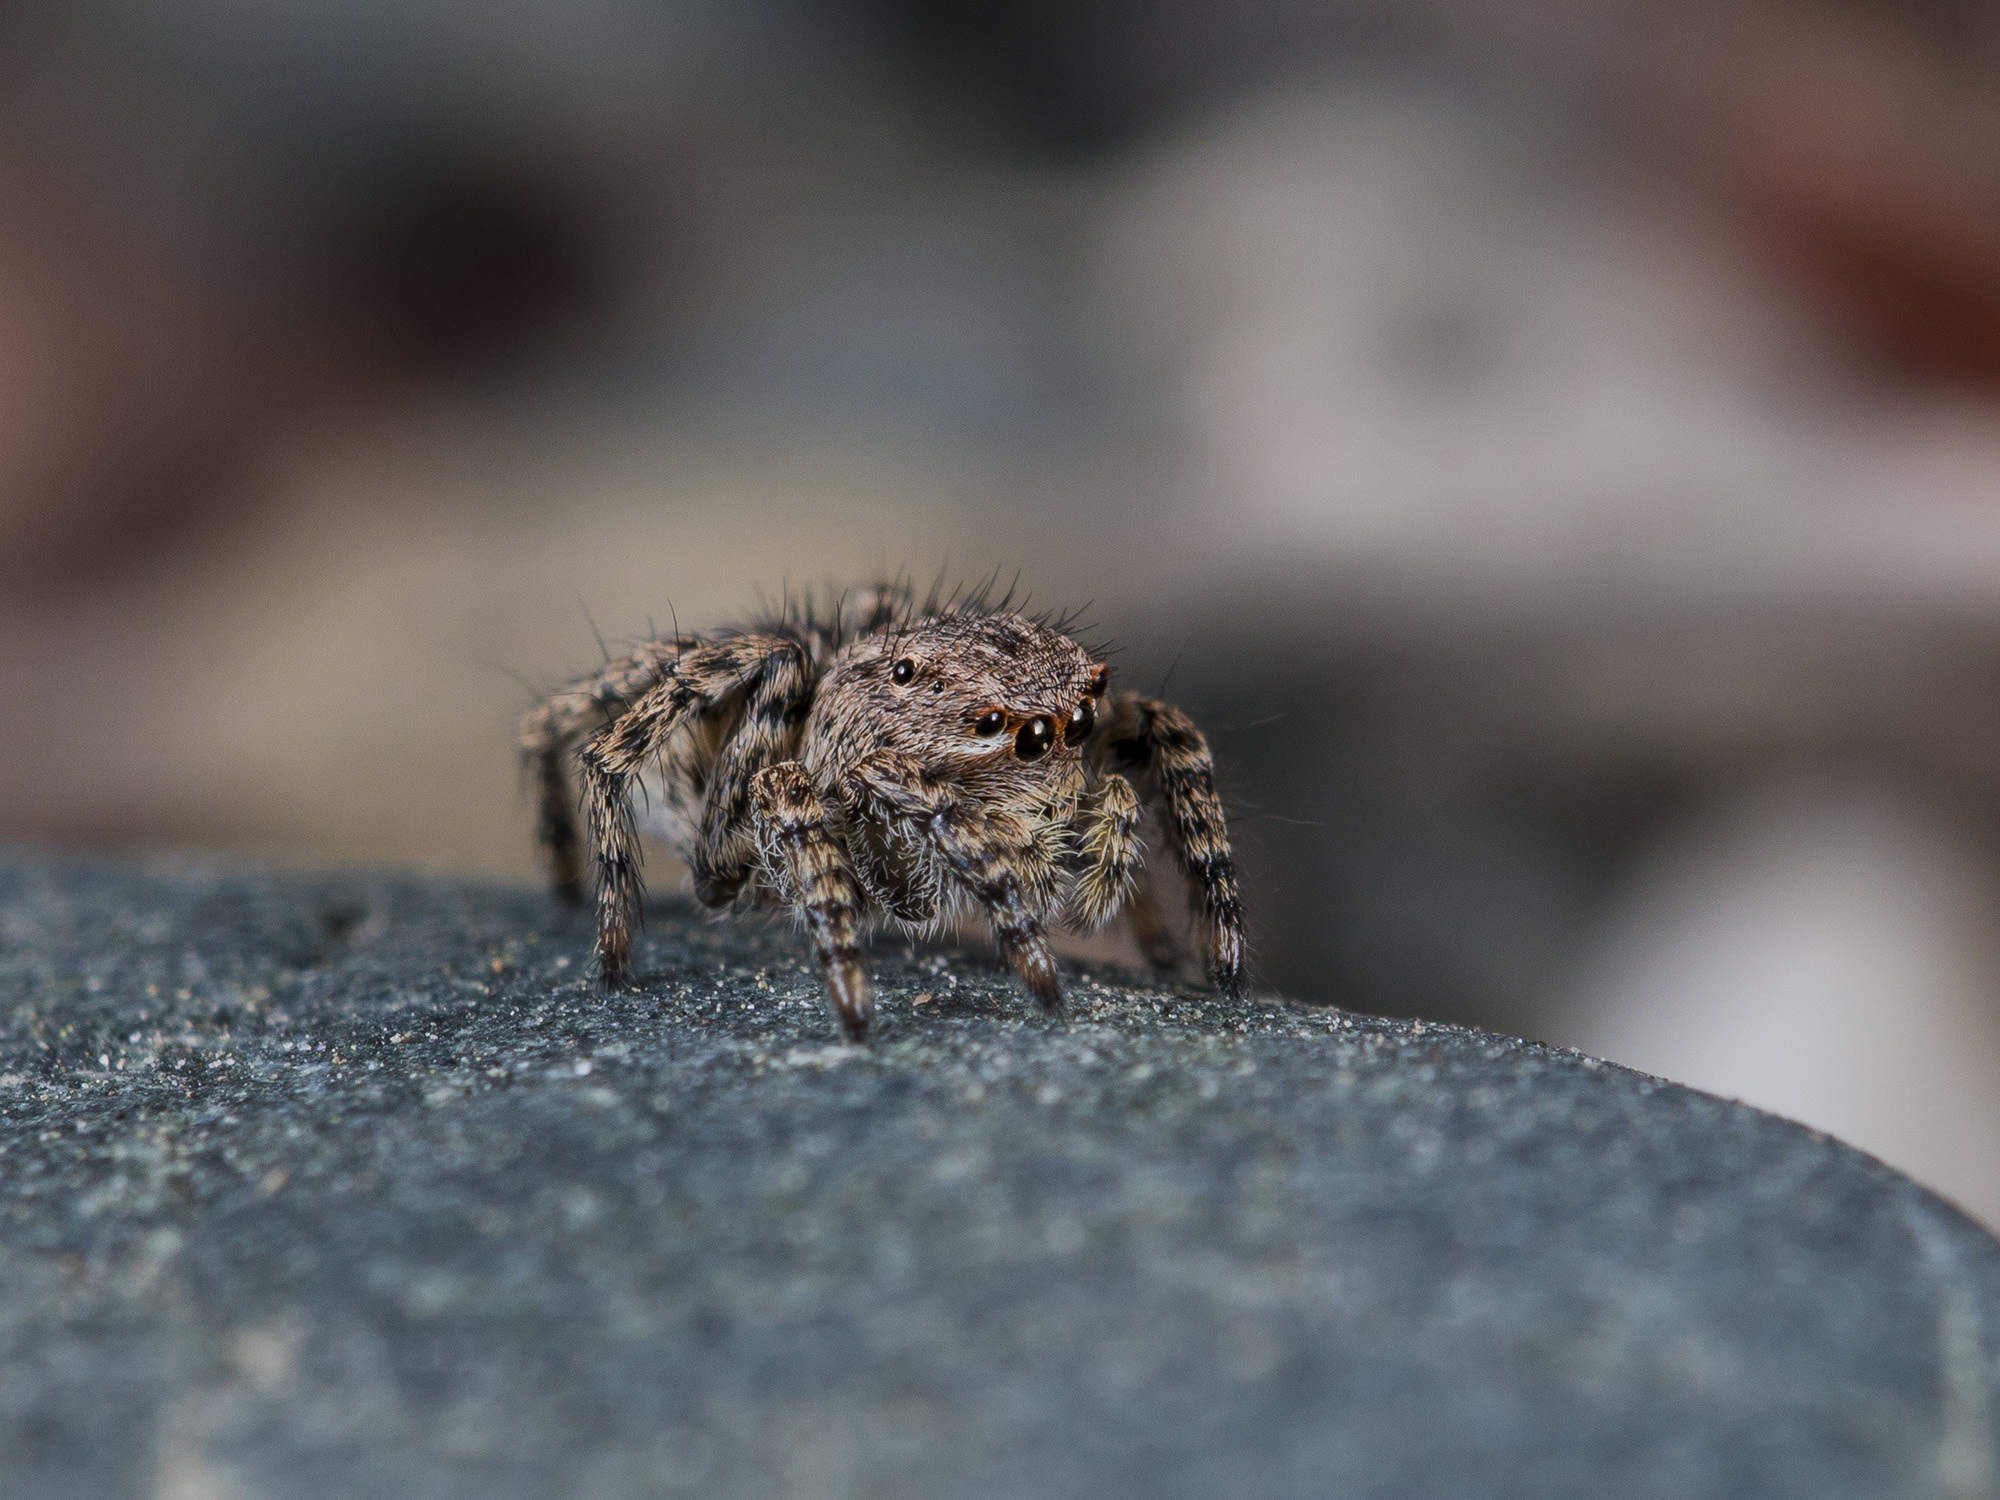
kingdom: Animalia
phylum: Arthropoda
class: Arachnida
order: Araneae
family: Salticidae
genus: Aelurillus
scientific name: Aelurillus v-insignitus
